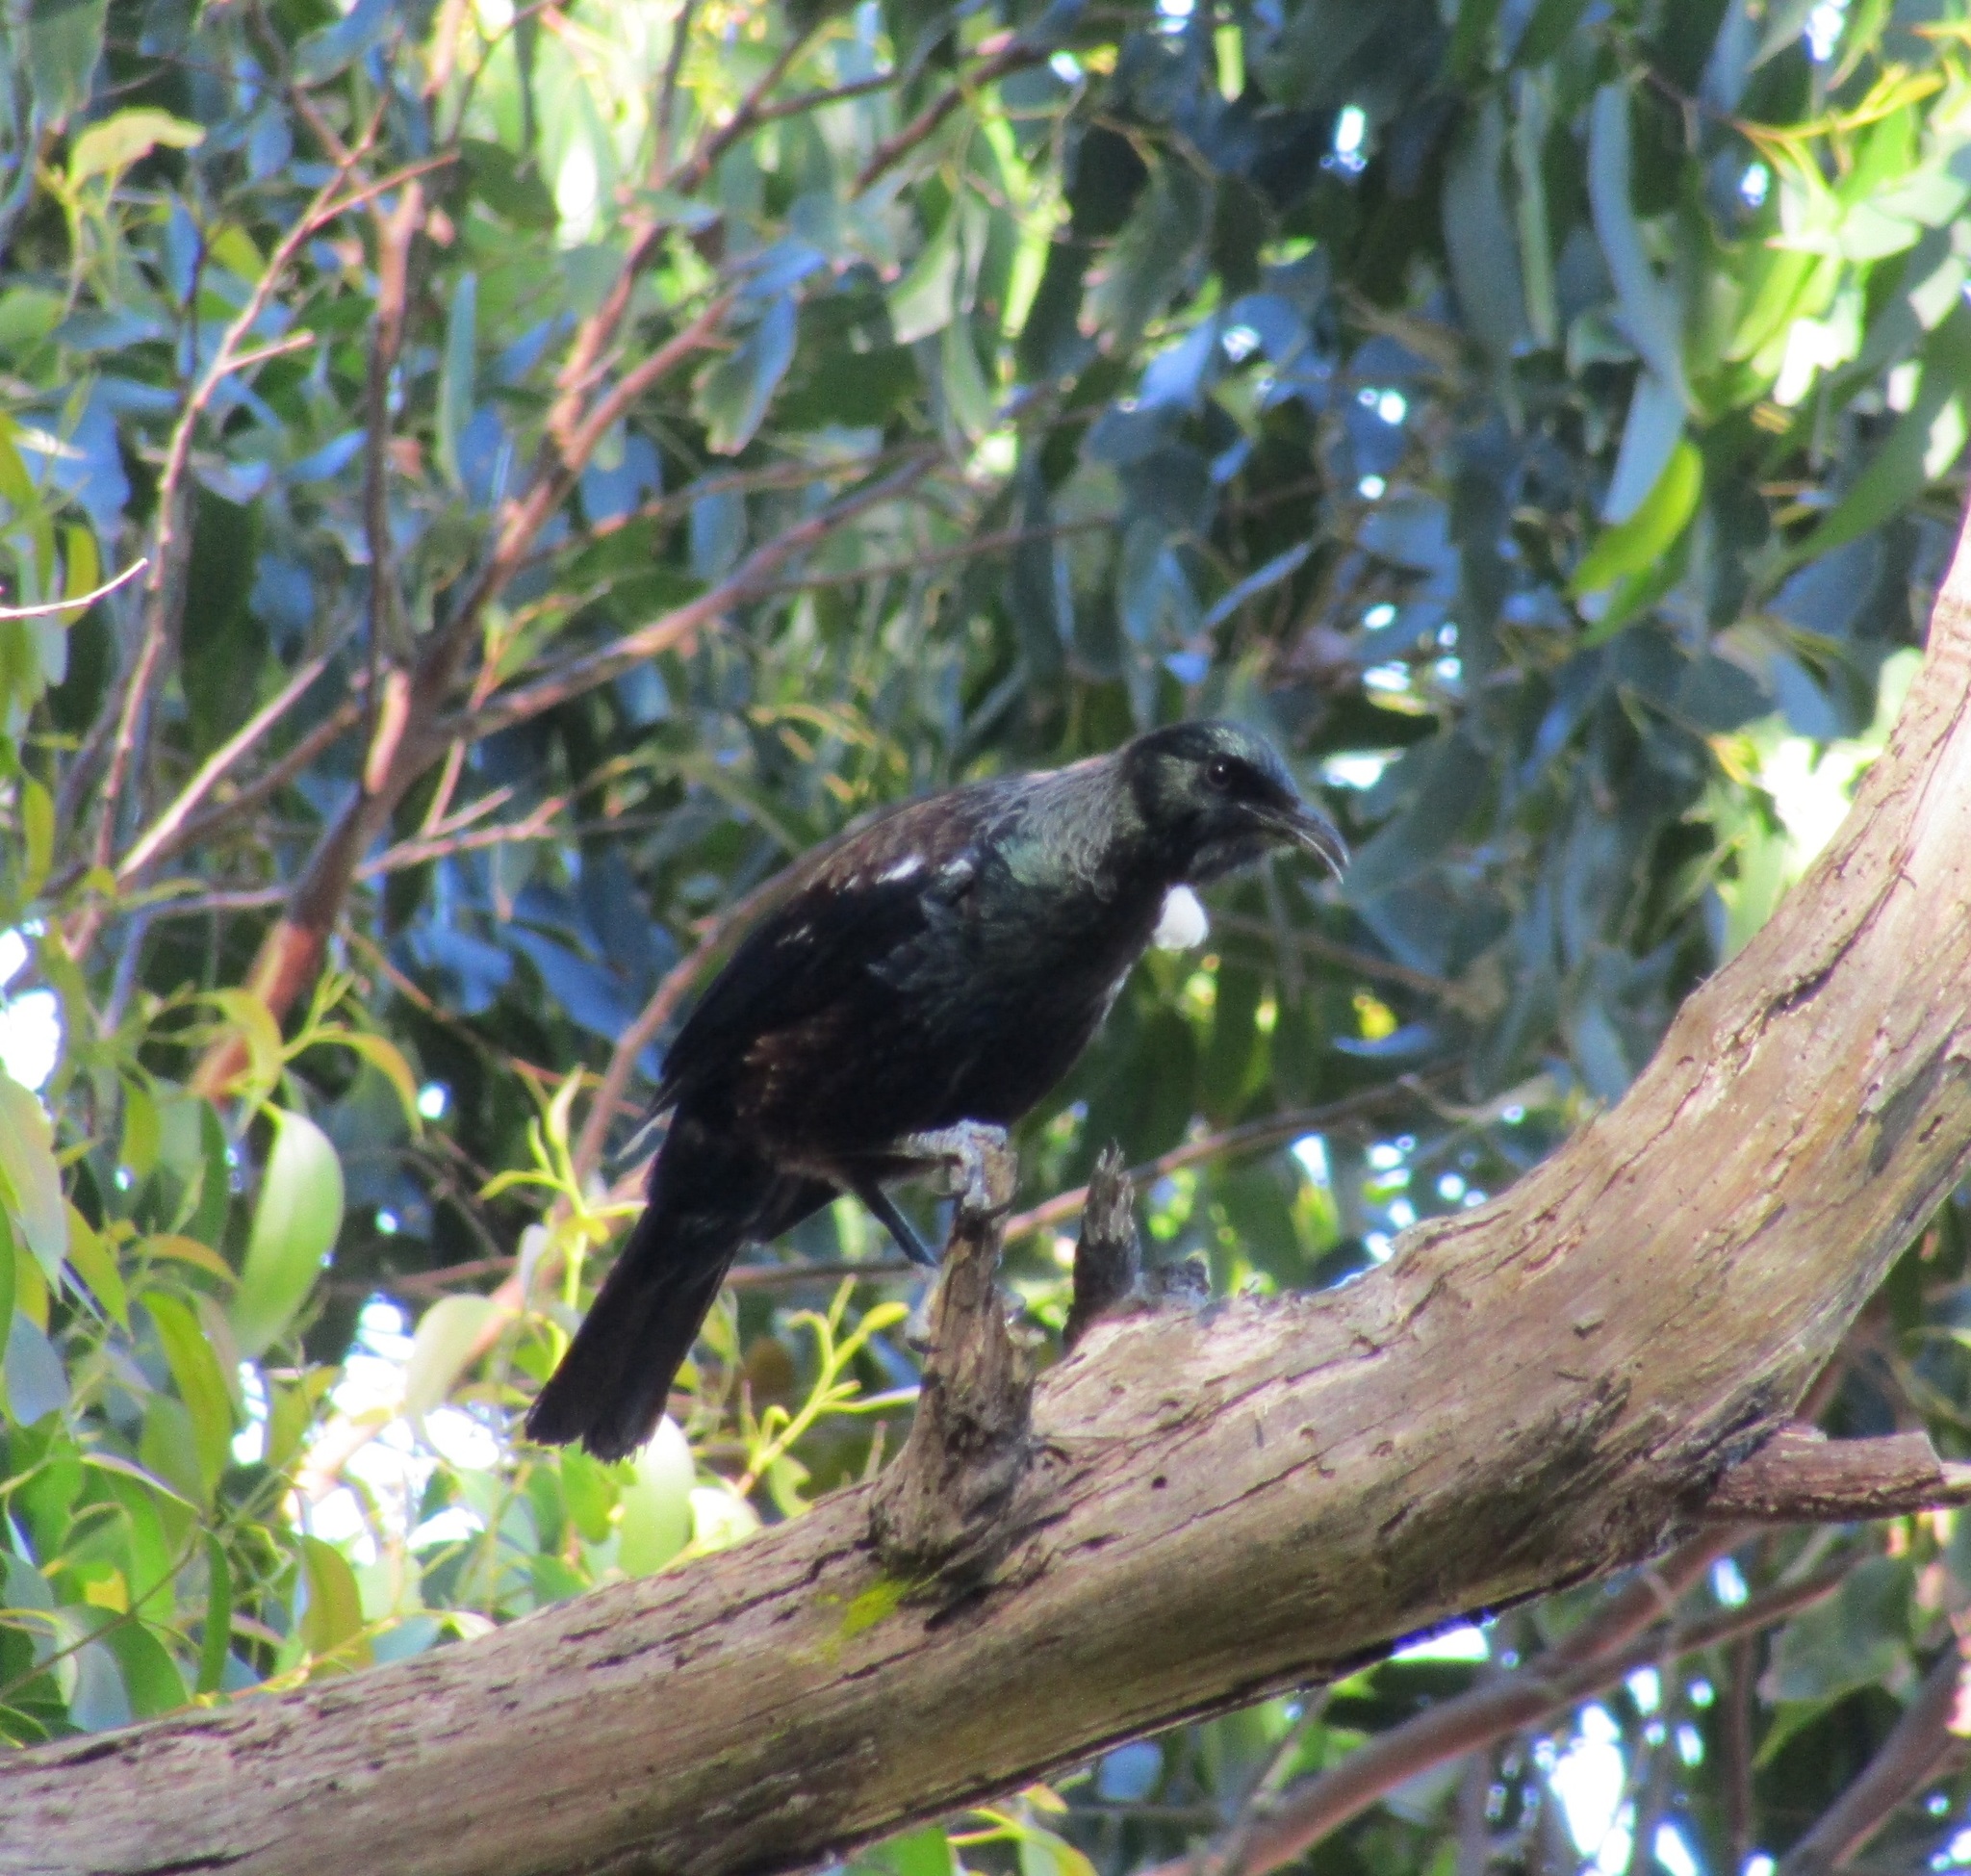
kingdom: Animalia
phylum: Chordata
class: Aves
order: Passeriformes
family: Meliphagidae
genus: Prosthemadera
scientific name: Prosthemadera novaeseelandiae
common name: Tui
